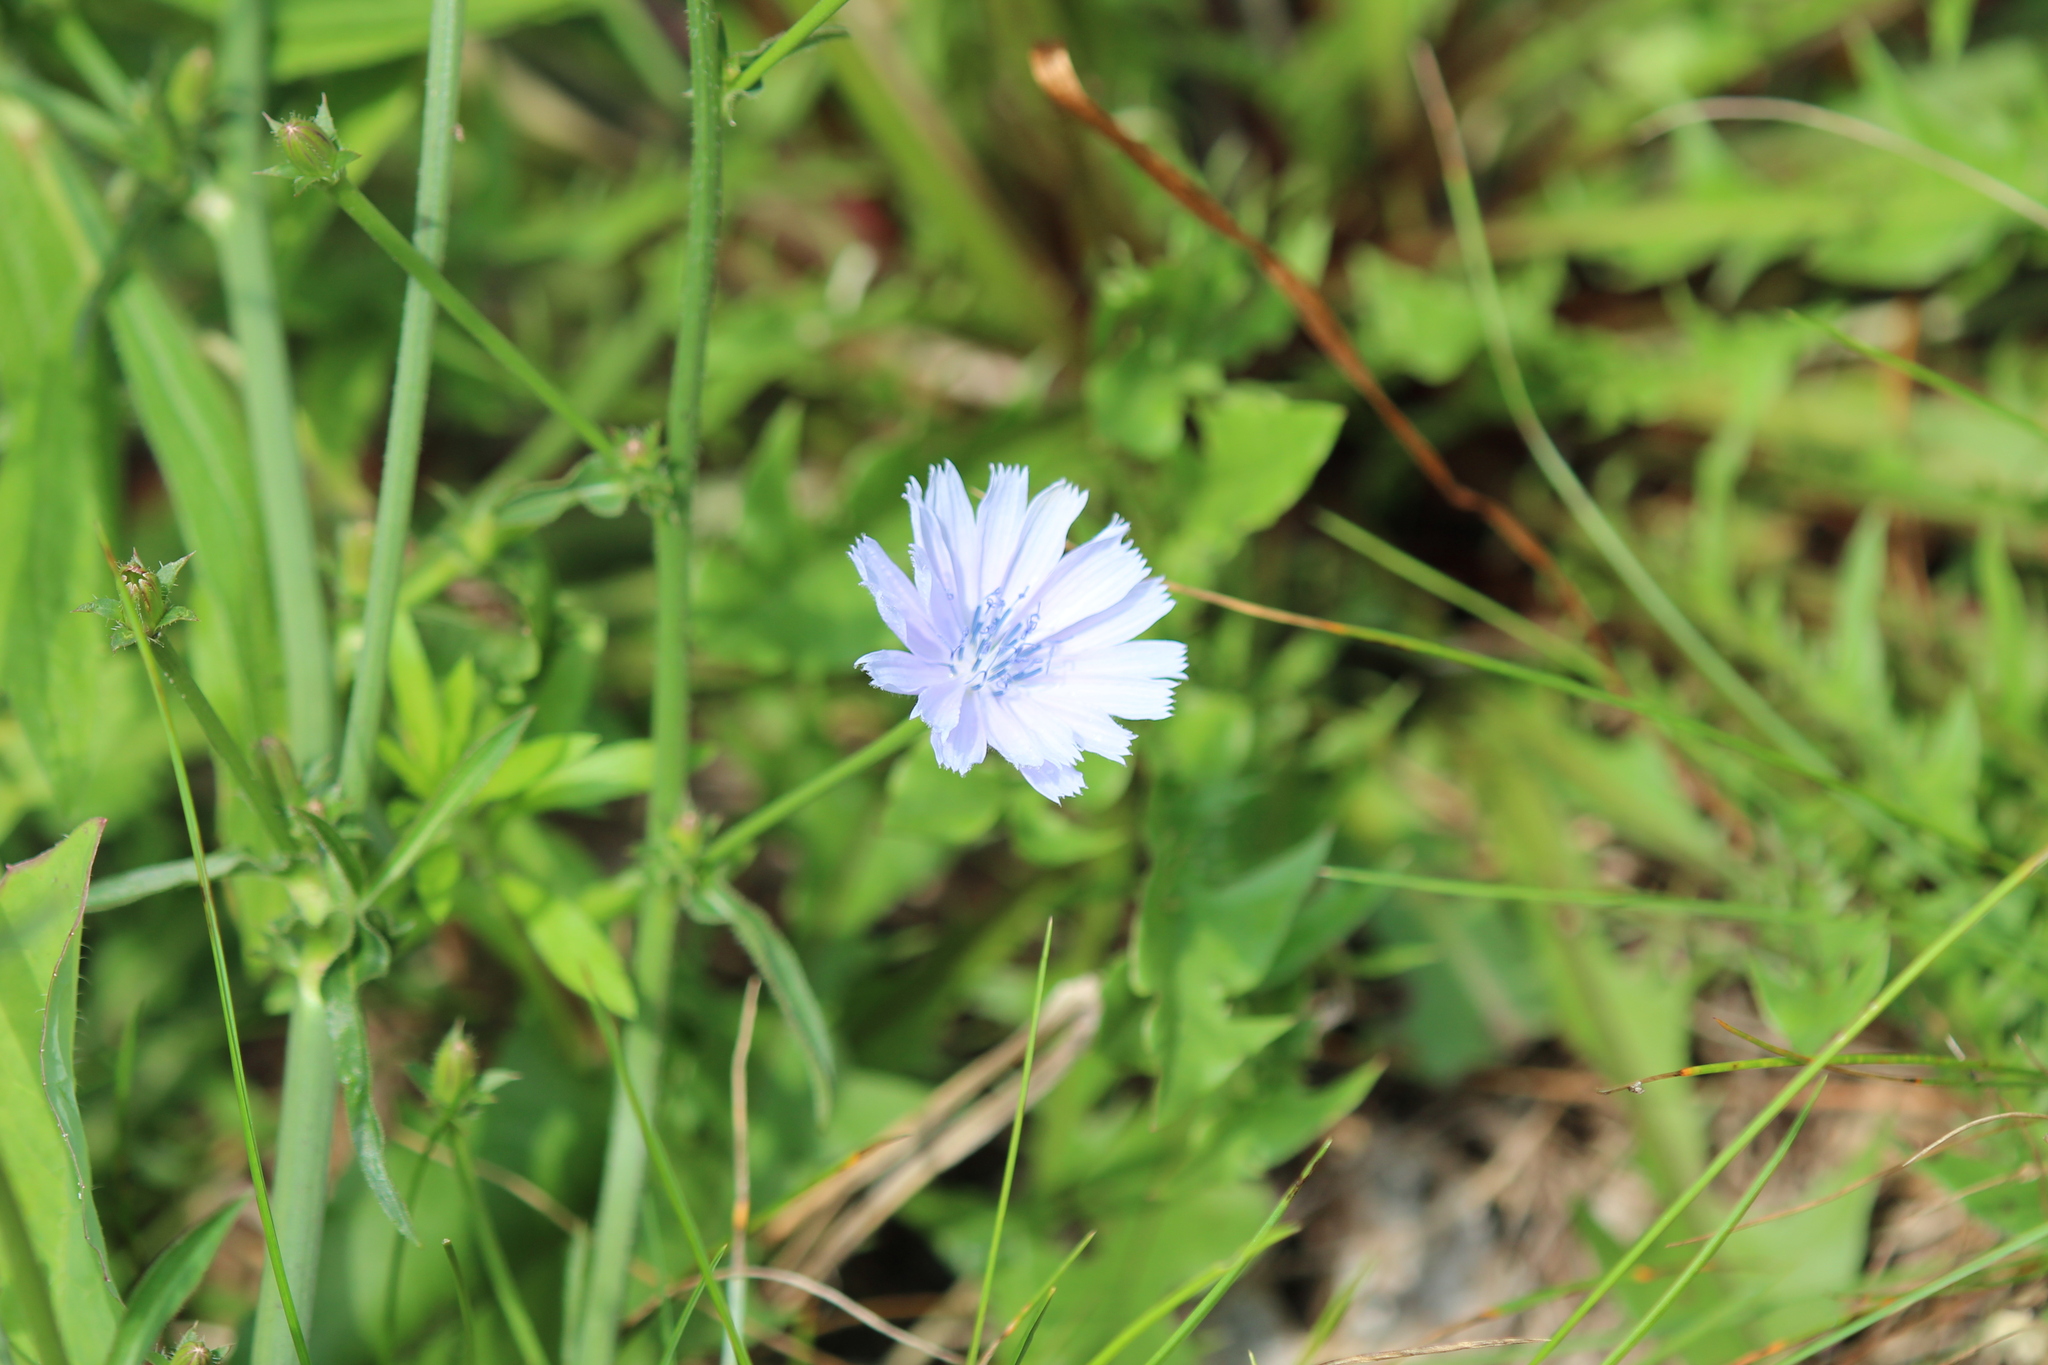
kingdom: Plantae
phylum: Tracheophyta
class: Magnoliopsida
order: Asterales
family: Asteraceae
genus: Cichorium
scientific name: Cichorium intybus
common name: Chicory
